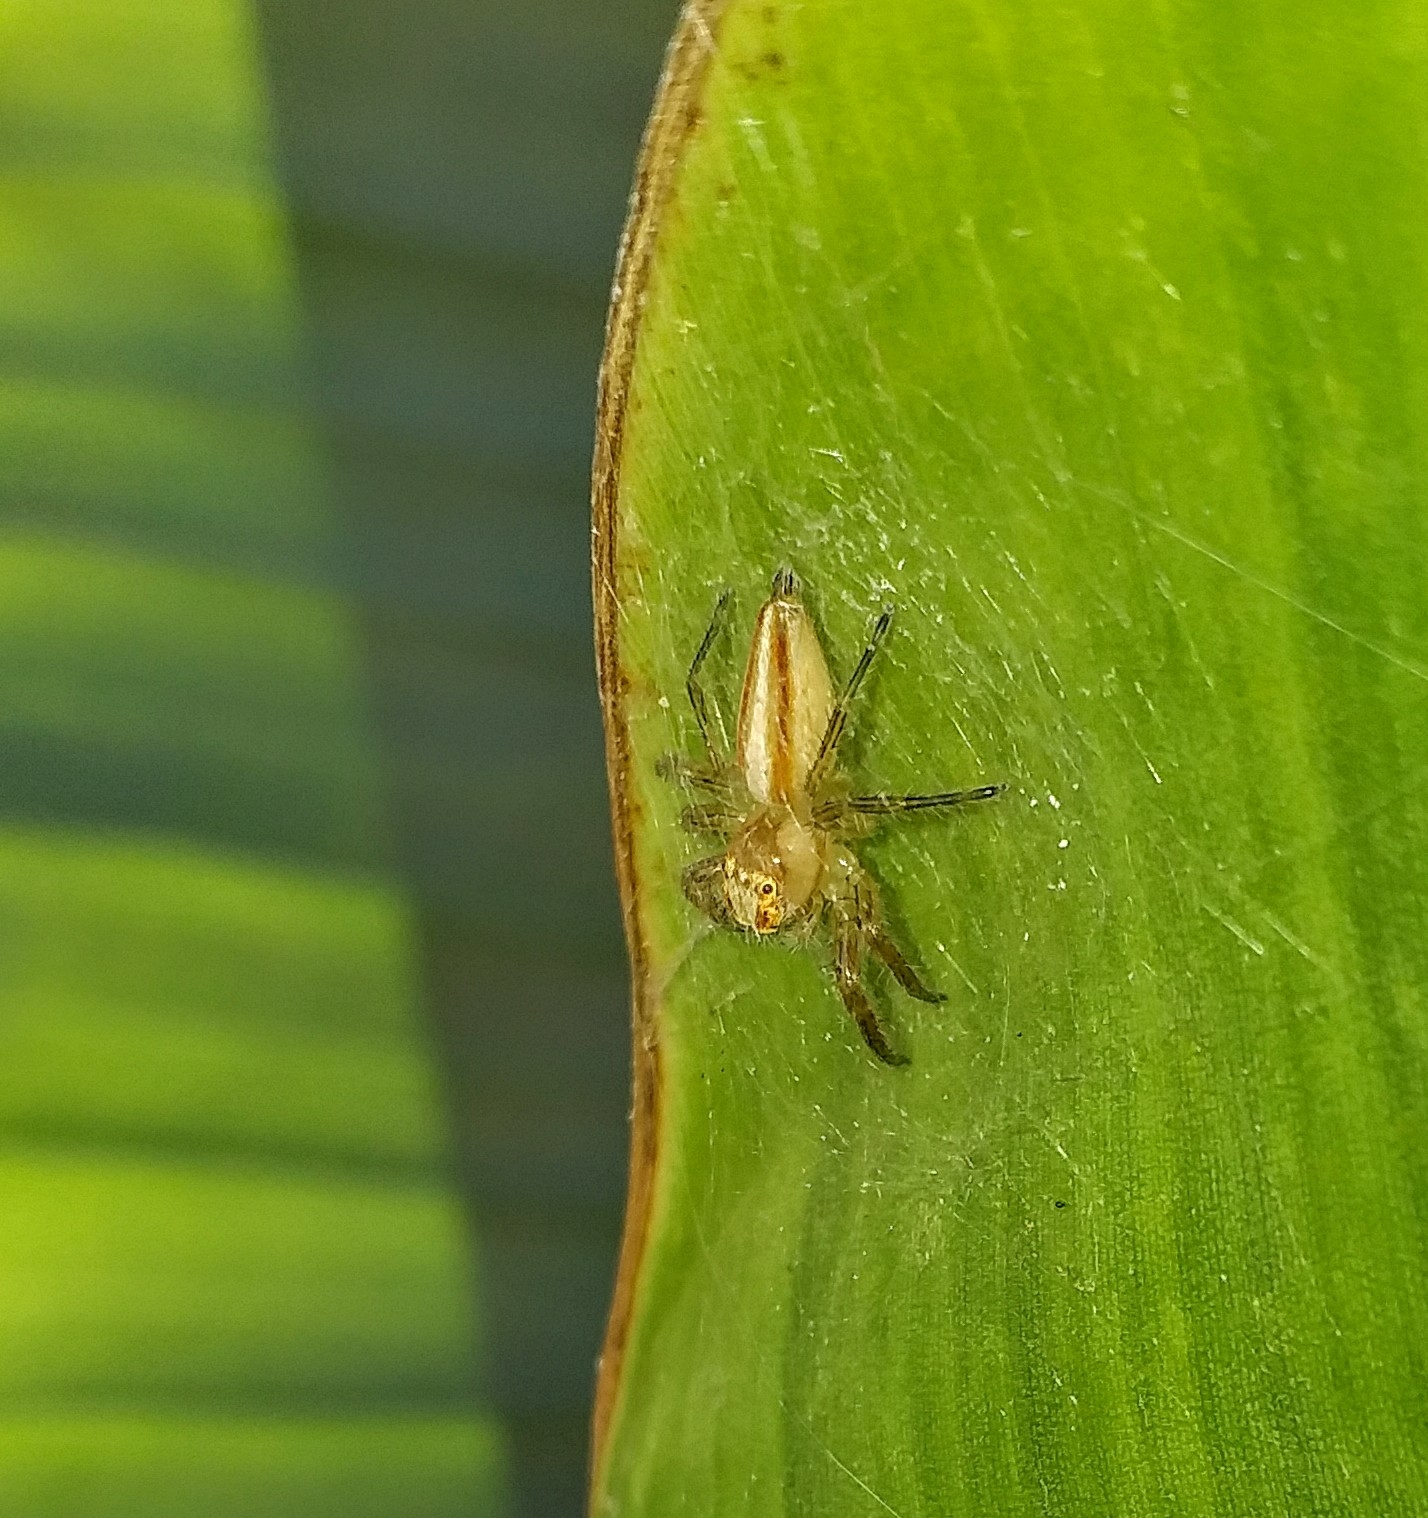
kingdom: Animalia
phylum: Arthropoda
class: Arachnida
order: Araneae
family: Salticidae
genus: Telamonia
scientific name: Telamonia dimidiata
